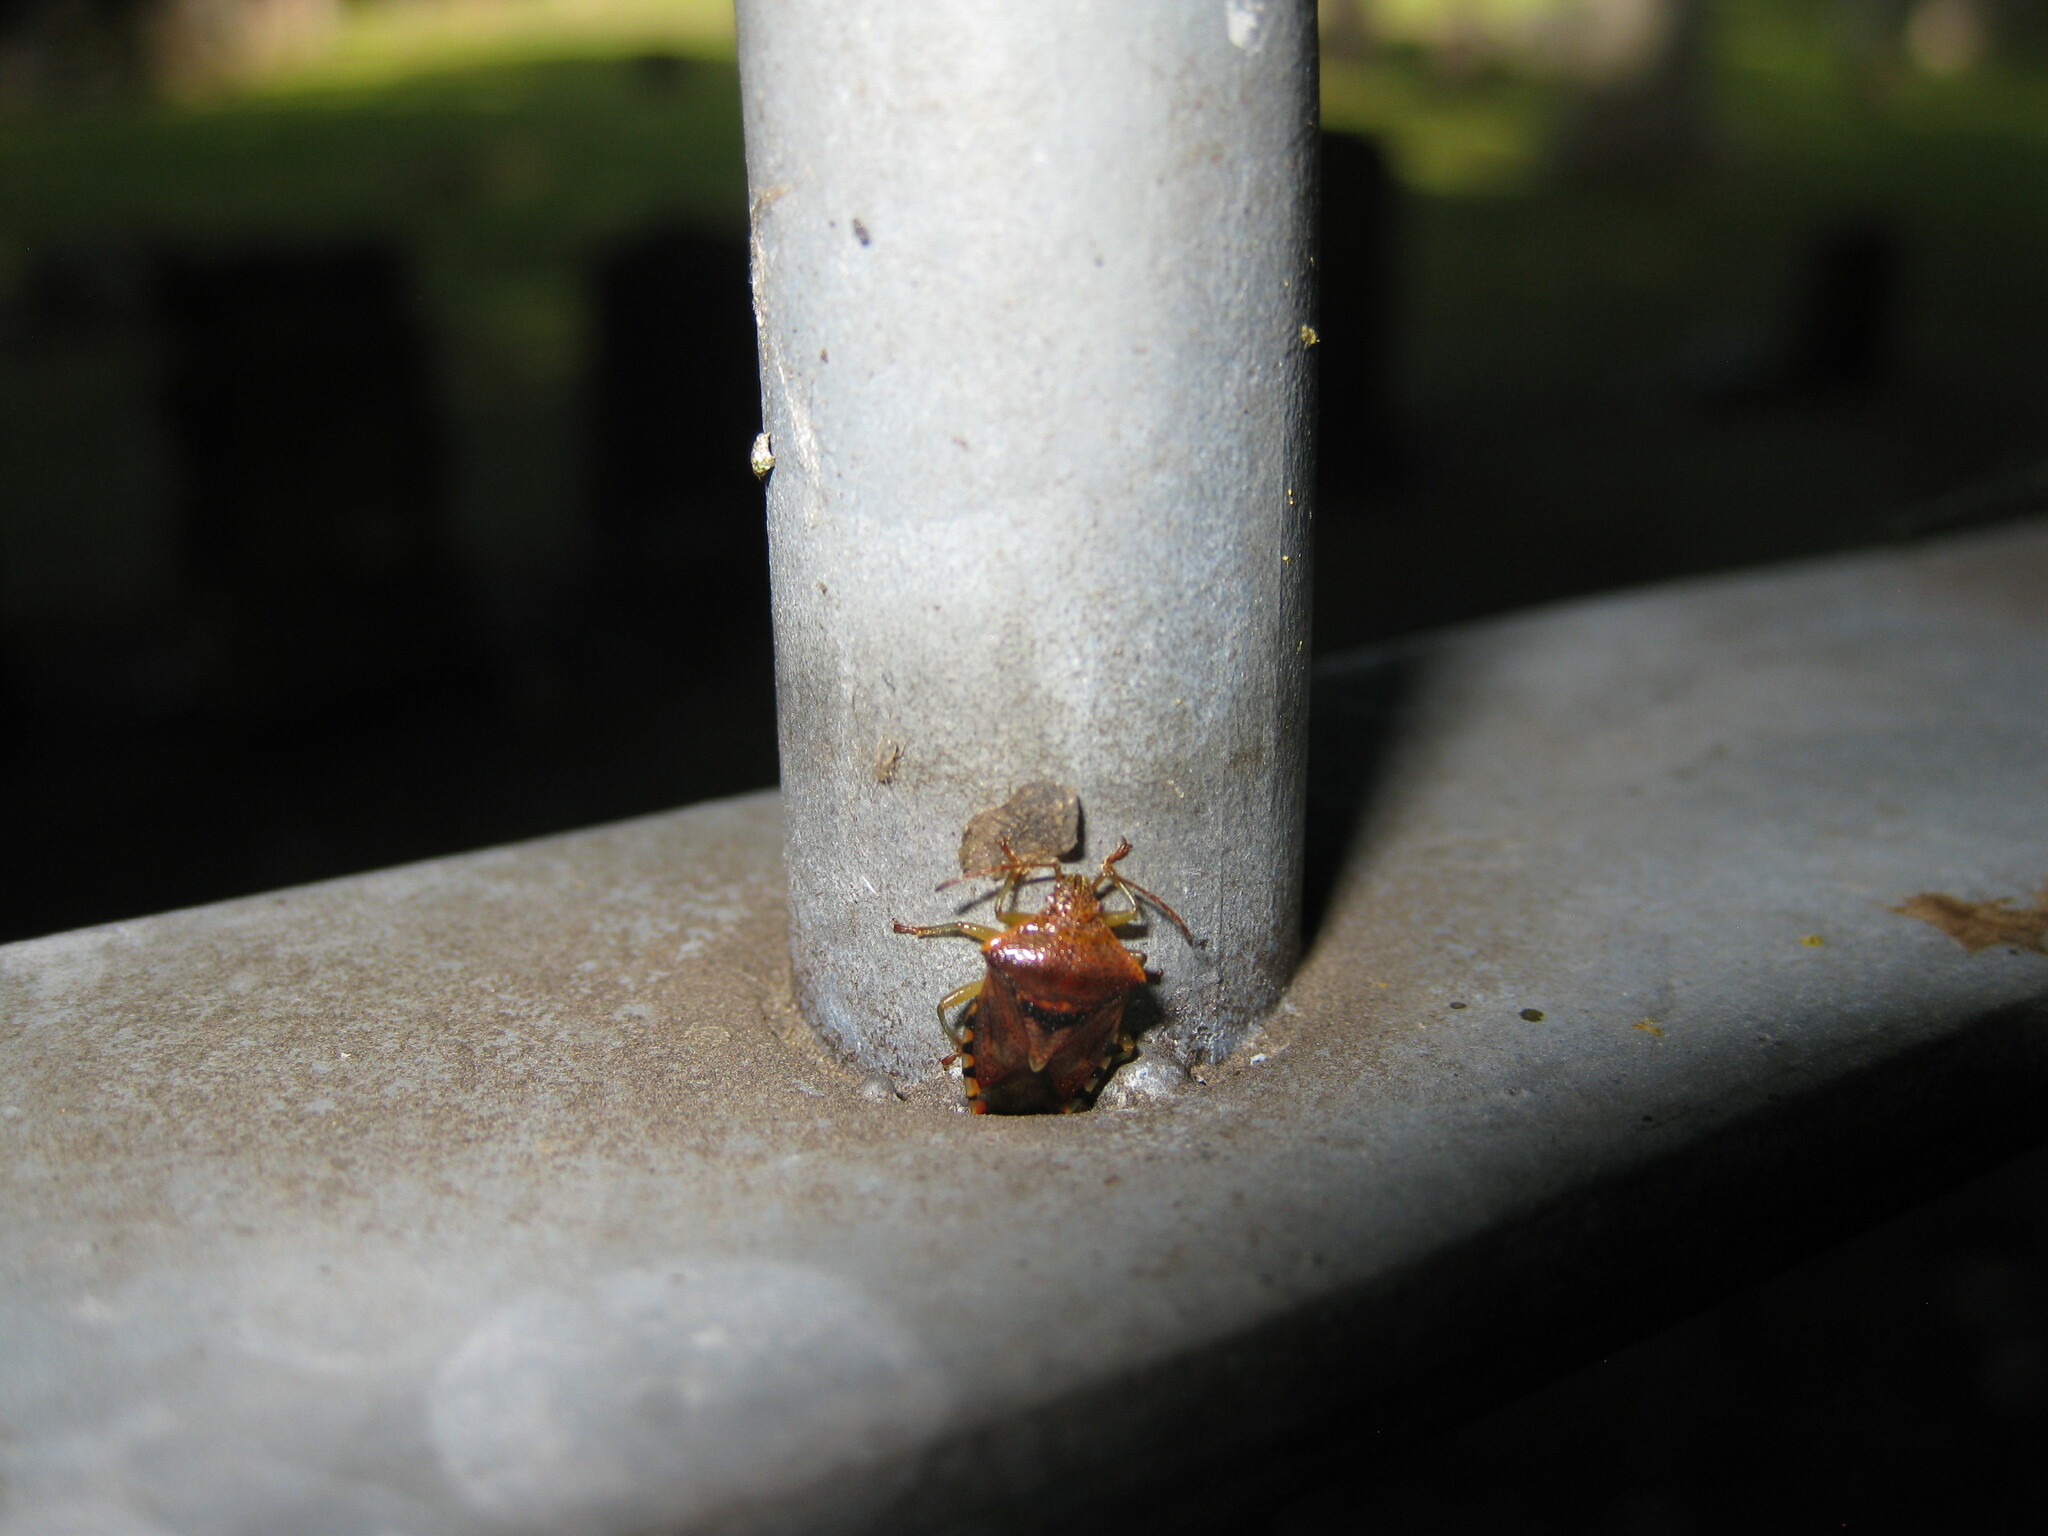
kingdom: Animalia
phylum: Arthropoda
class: Insecta
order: Hemiptera
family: Acanthosomatidae
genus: Elasmucha
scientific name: Elasmucha grisea
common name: Parent bug
